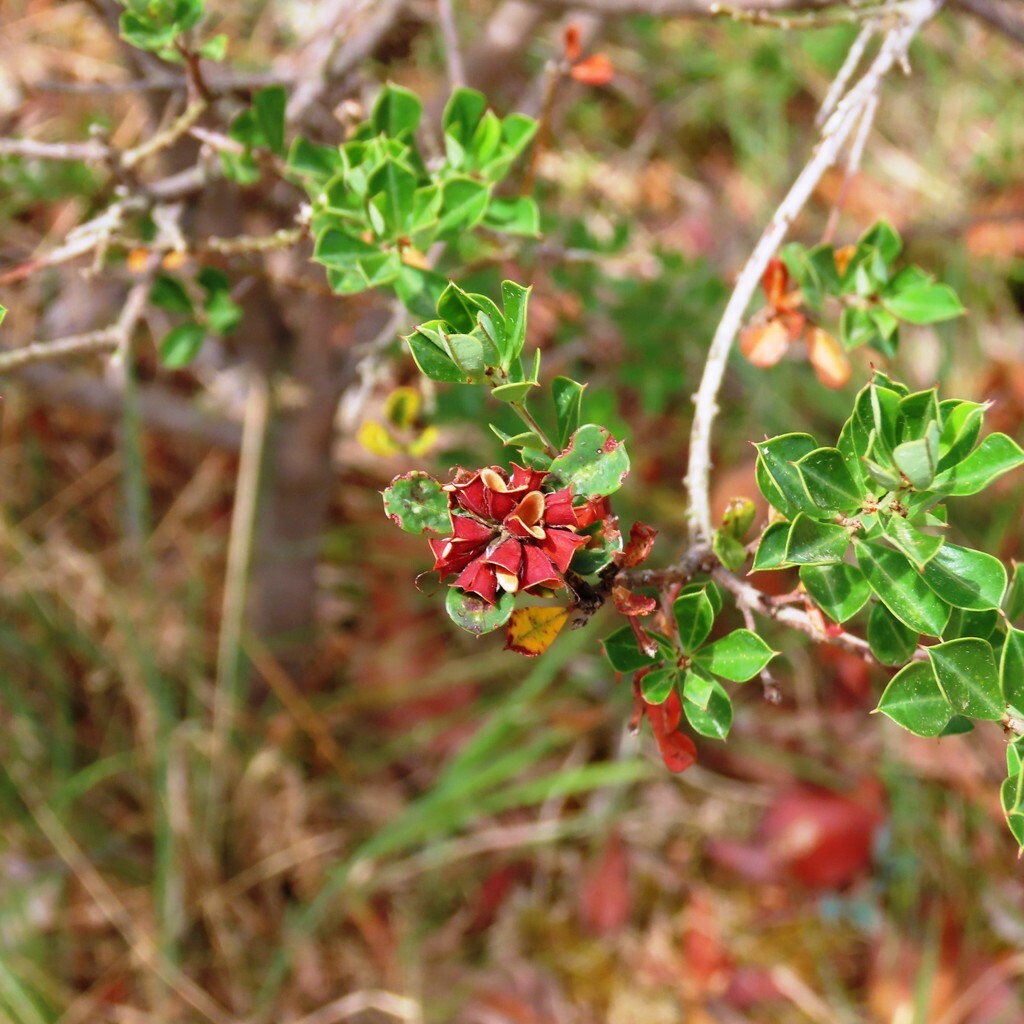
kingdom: Plantae
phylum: Tracheophyta
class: Magnoliopsida
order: Fabales
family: Fabaceae
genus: Pultenaea
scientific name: Pultenaea daphnoides
